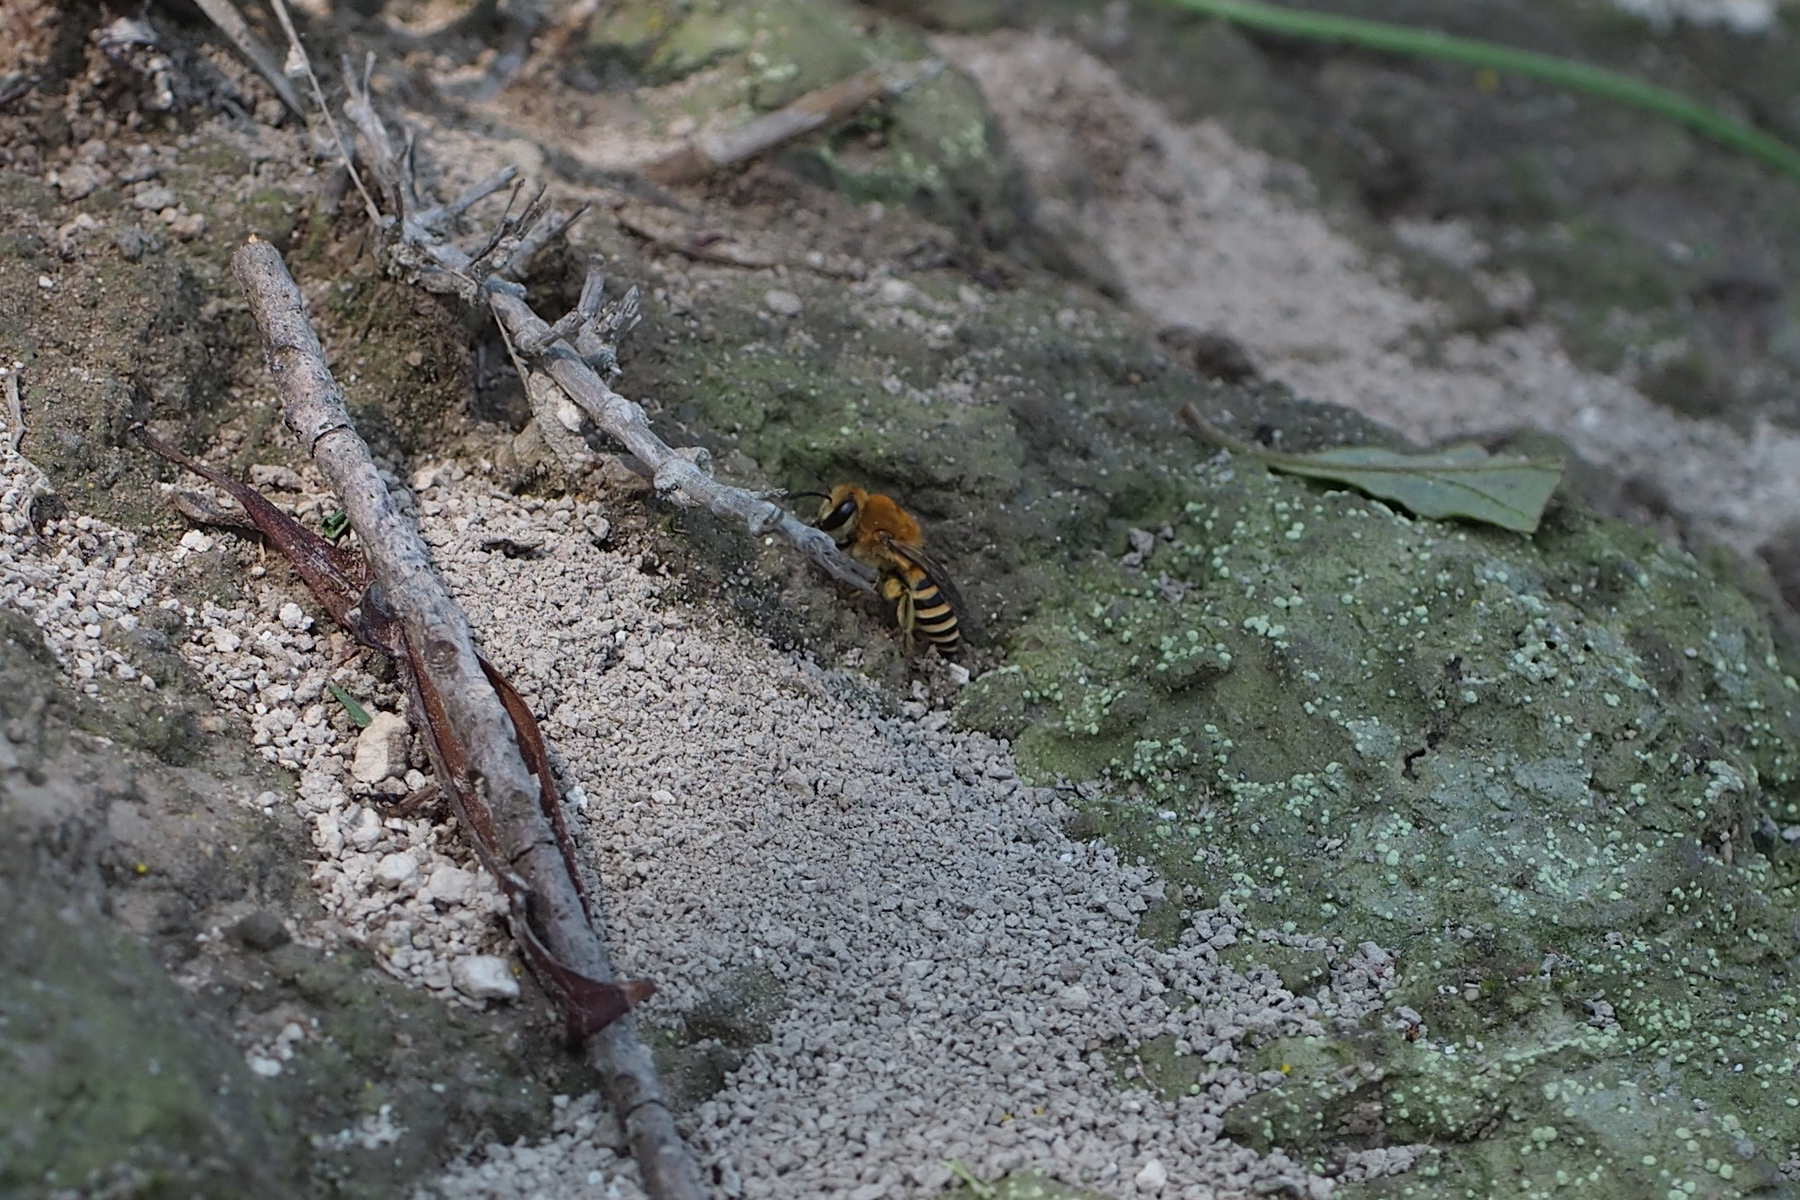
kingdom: Animalia
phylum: Arthropoda
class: Insecta
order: Hymenoptera
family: Colletidae
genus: Colletes
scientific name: Colletes esakii
